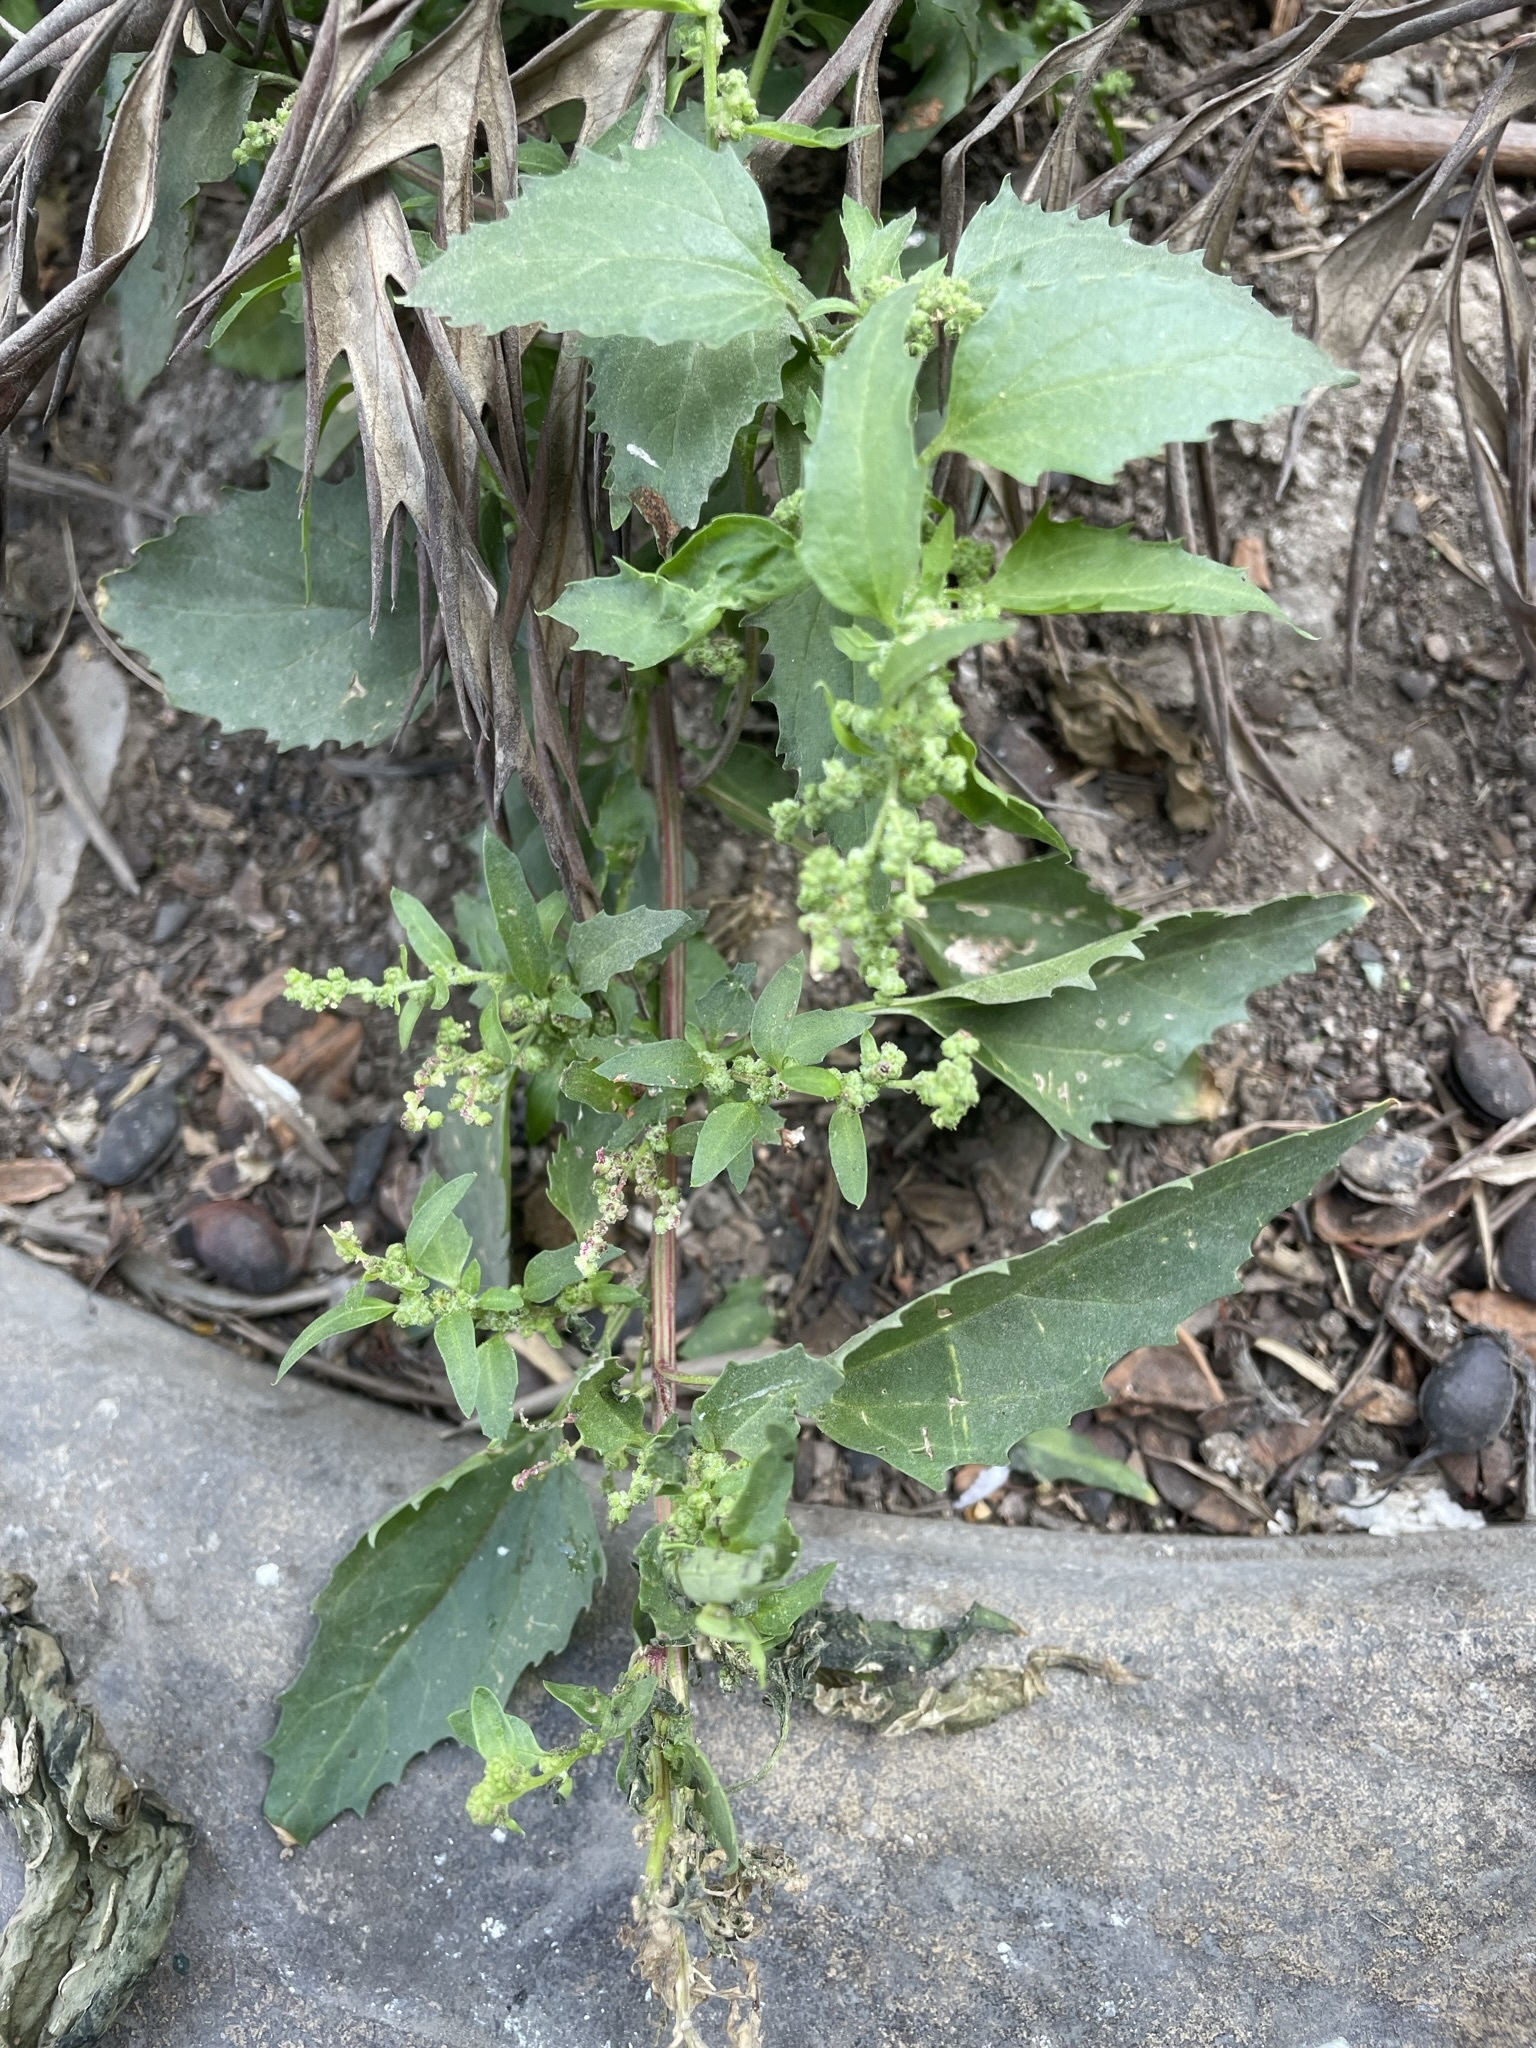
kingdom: Plantae
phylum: Tracheophyta
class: Magnoliopsida
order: Caryophyllales
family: Amaranthaceae
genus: Chenopodiastrum
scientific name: Chenopodiastrum murale
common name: Sowbane
